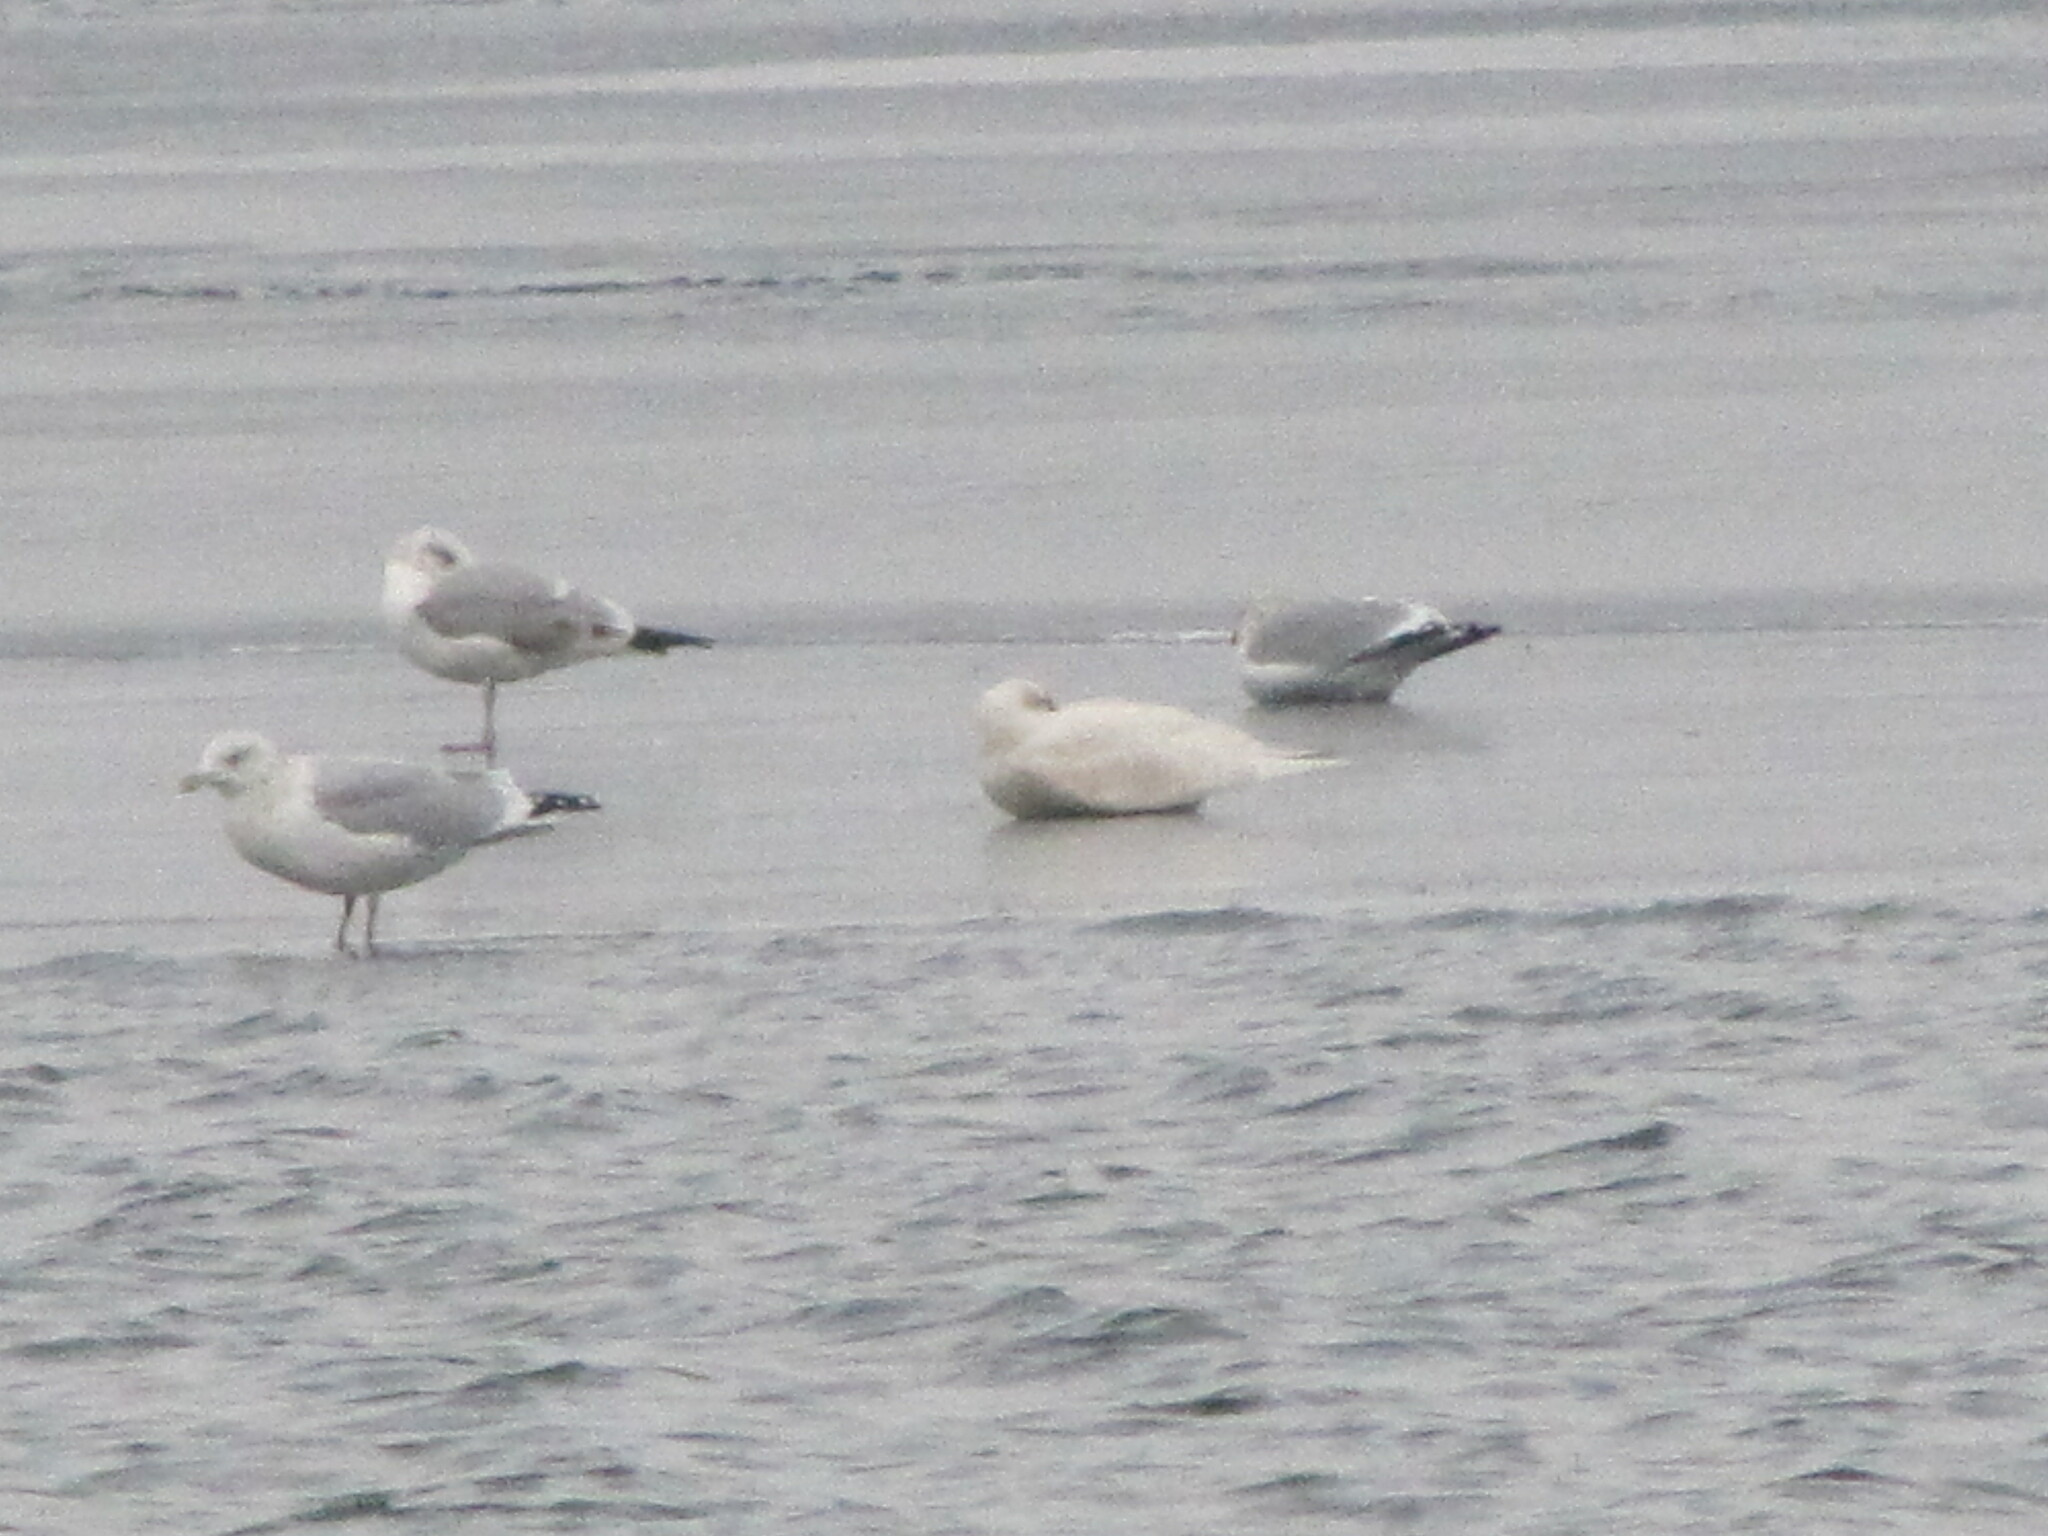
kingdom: Animalia
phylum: Chordata
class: Aves
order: Charadriiformes
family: Laridae
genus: Larus
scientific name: Larus hyperboreus
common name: Glaucous gull
